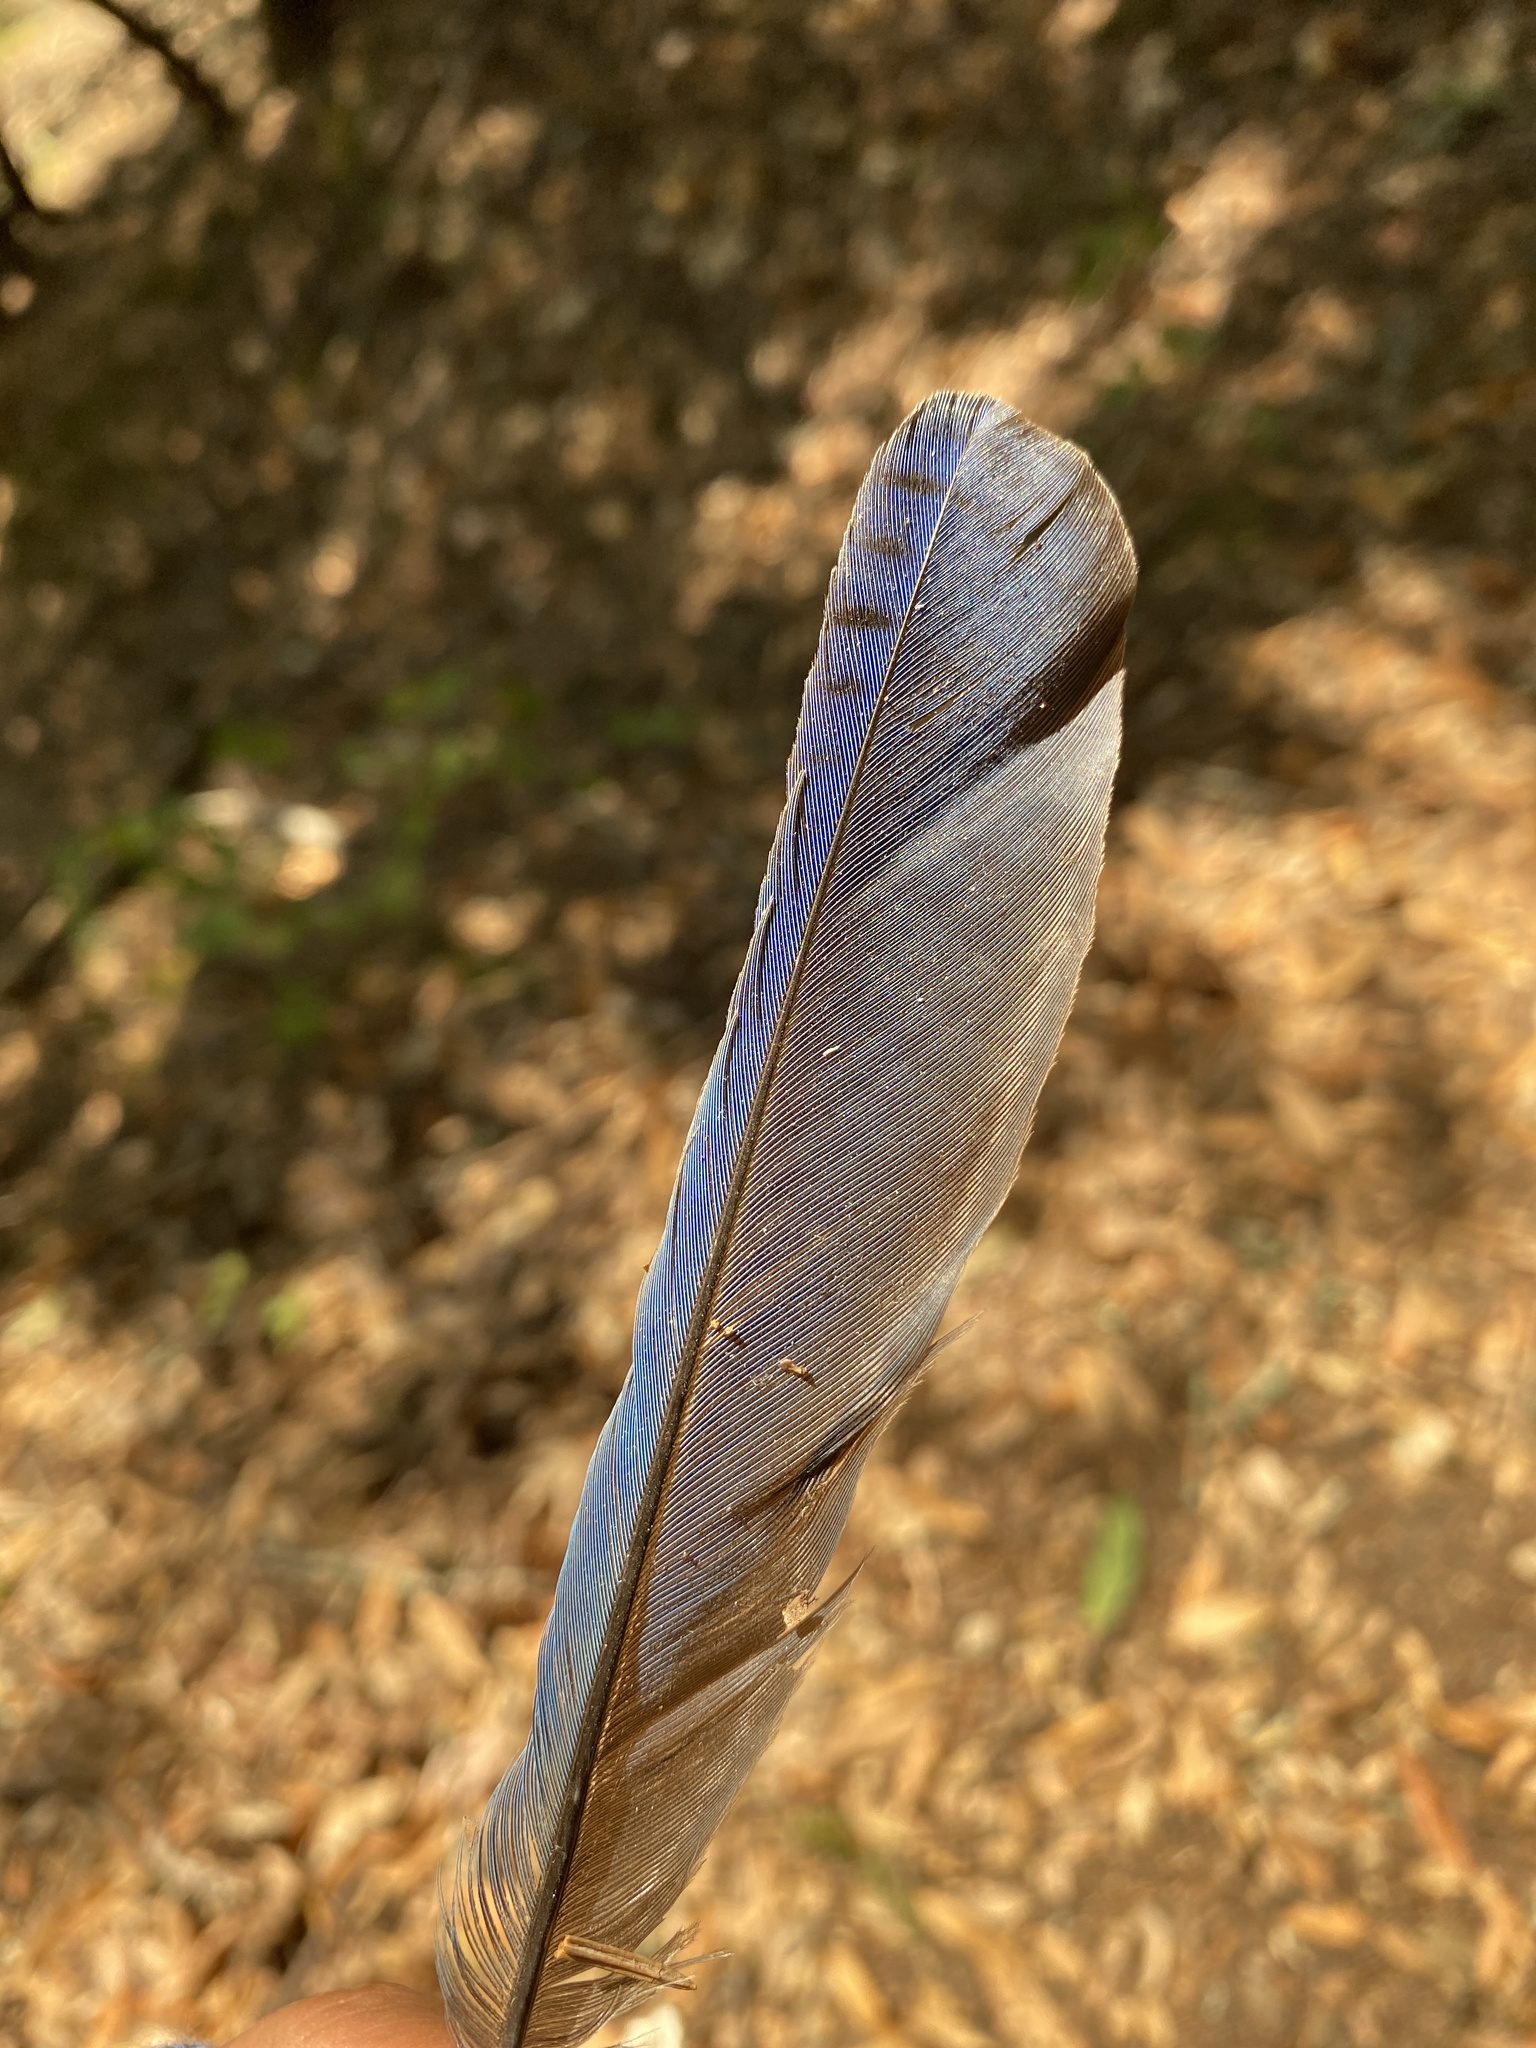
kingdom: Animalia
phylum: Chordata
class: Aves
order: Passeriformes
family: Corvidae
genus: Cyanocitta
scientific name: Cyanocitta stelleri
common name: Steller's jay
